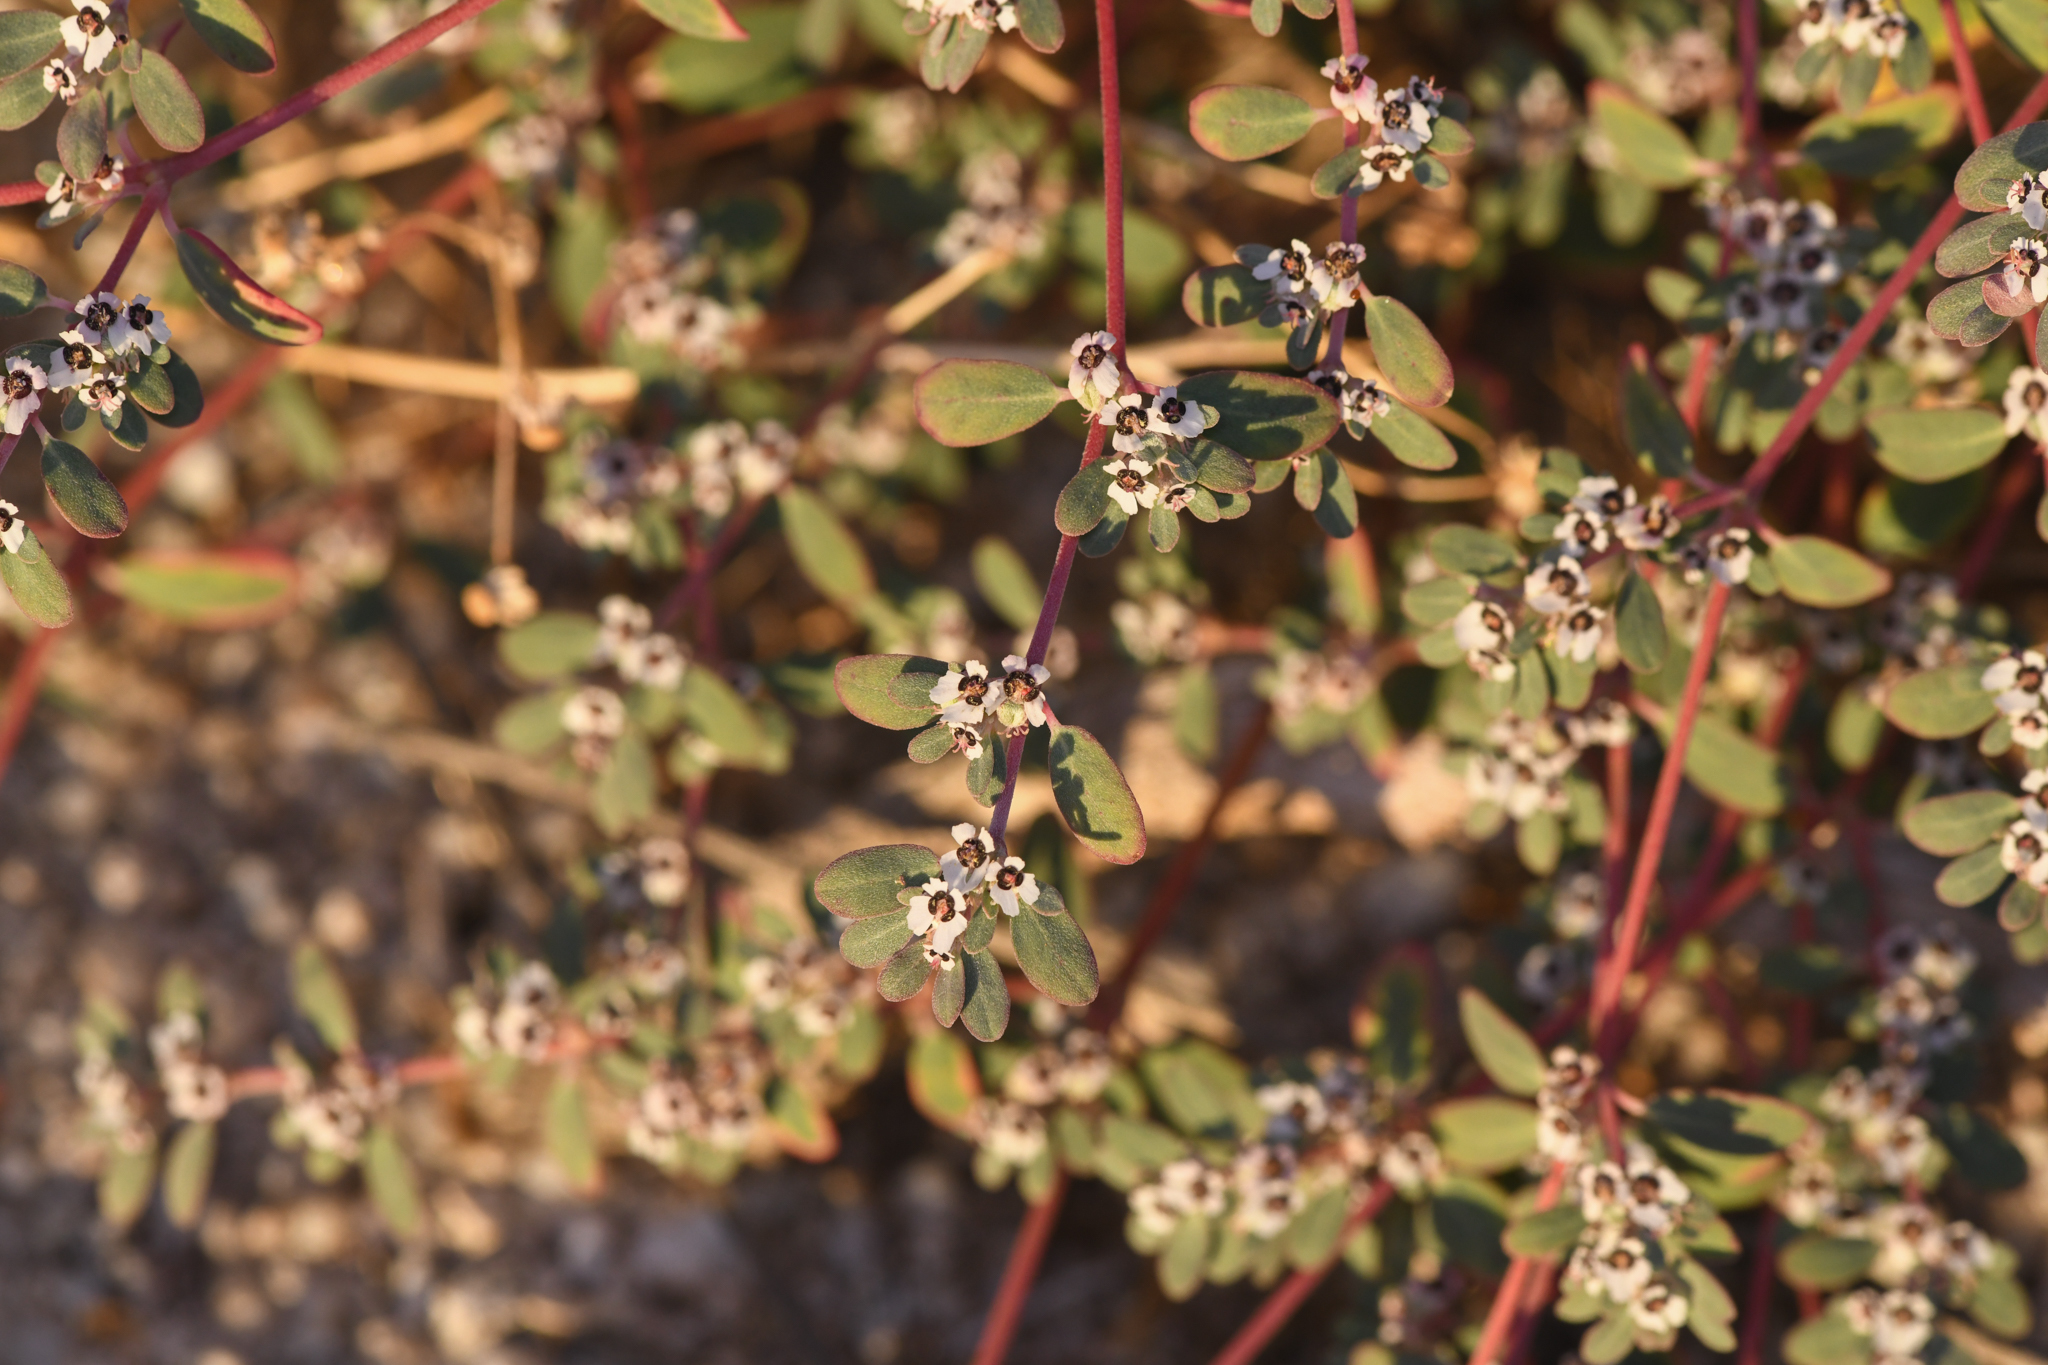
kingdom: Plantae
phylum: Tracheophyta
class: Magnoliopsida
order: Malpighiales
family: Euphorbiaceae
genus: Euphorbia
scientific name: Euphorbia pediculifera
